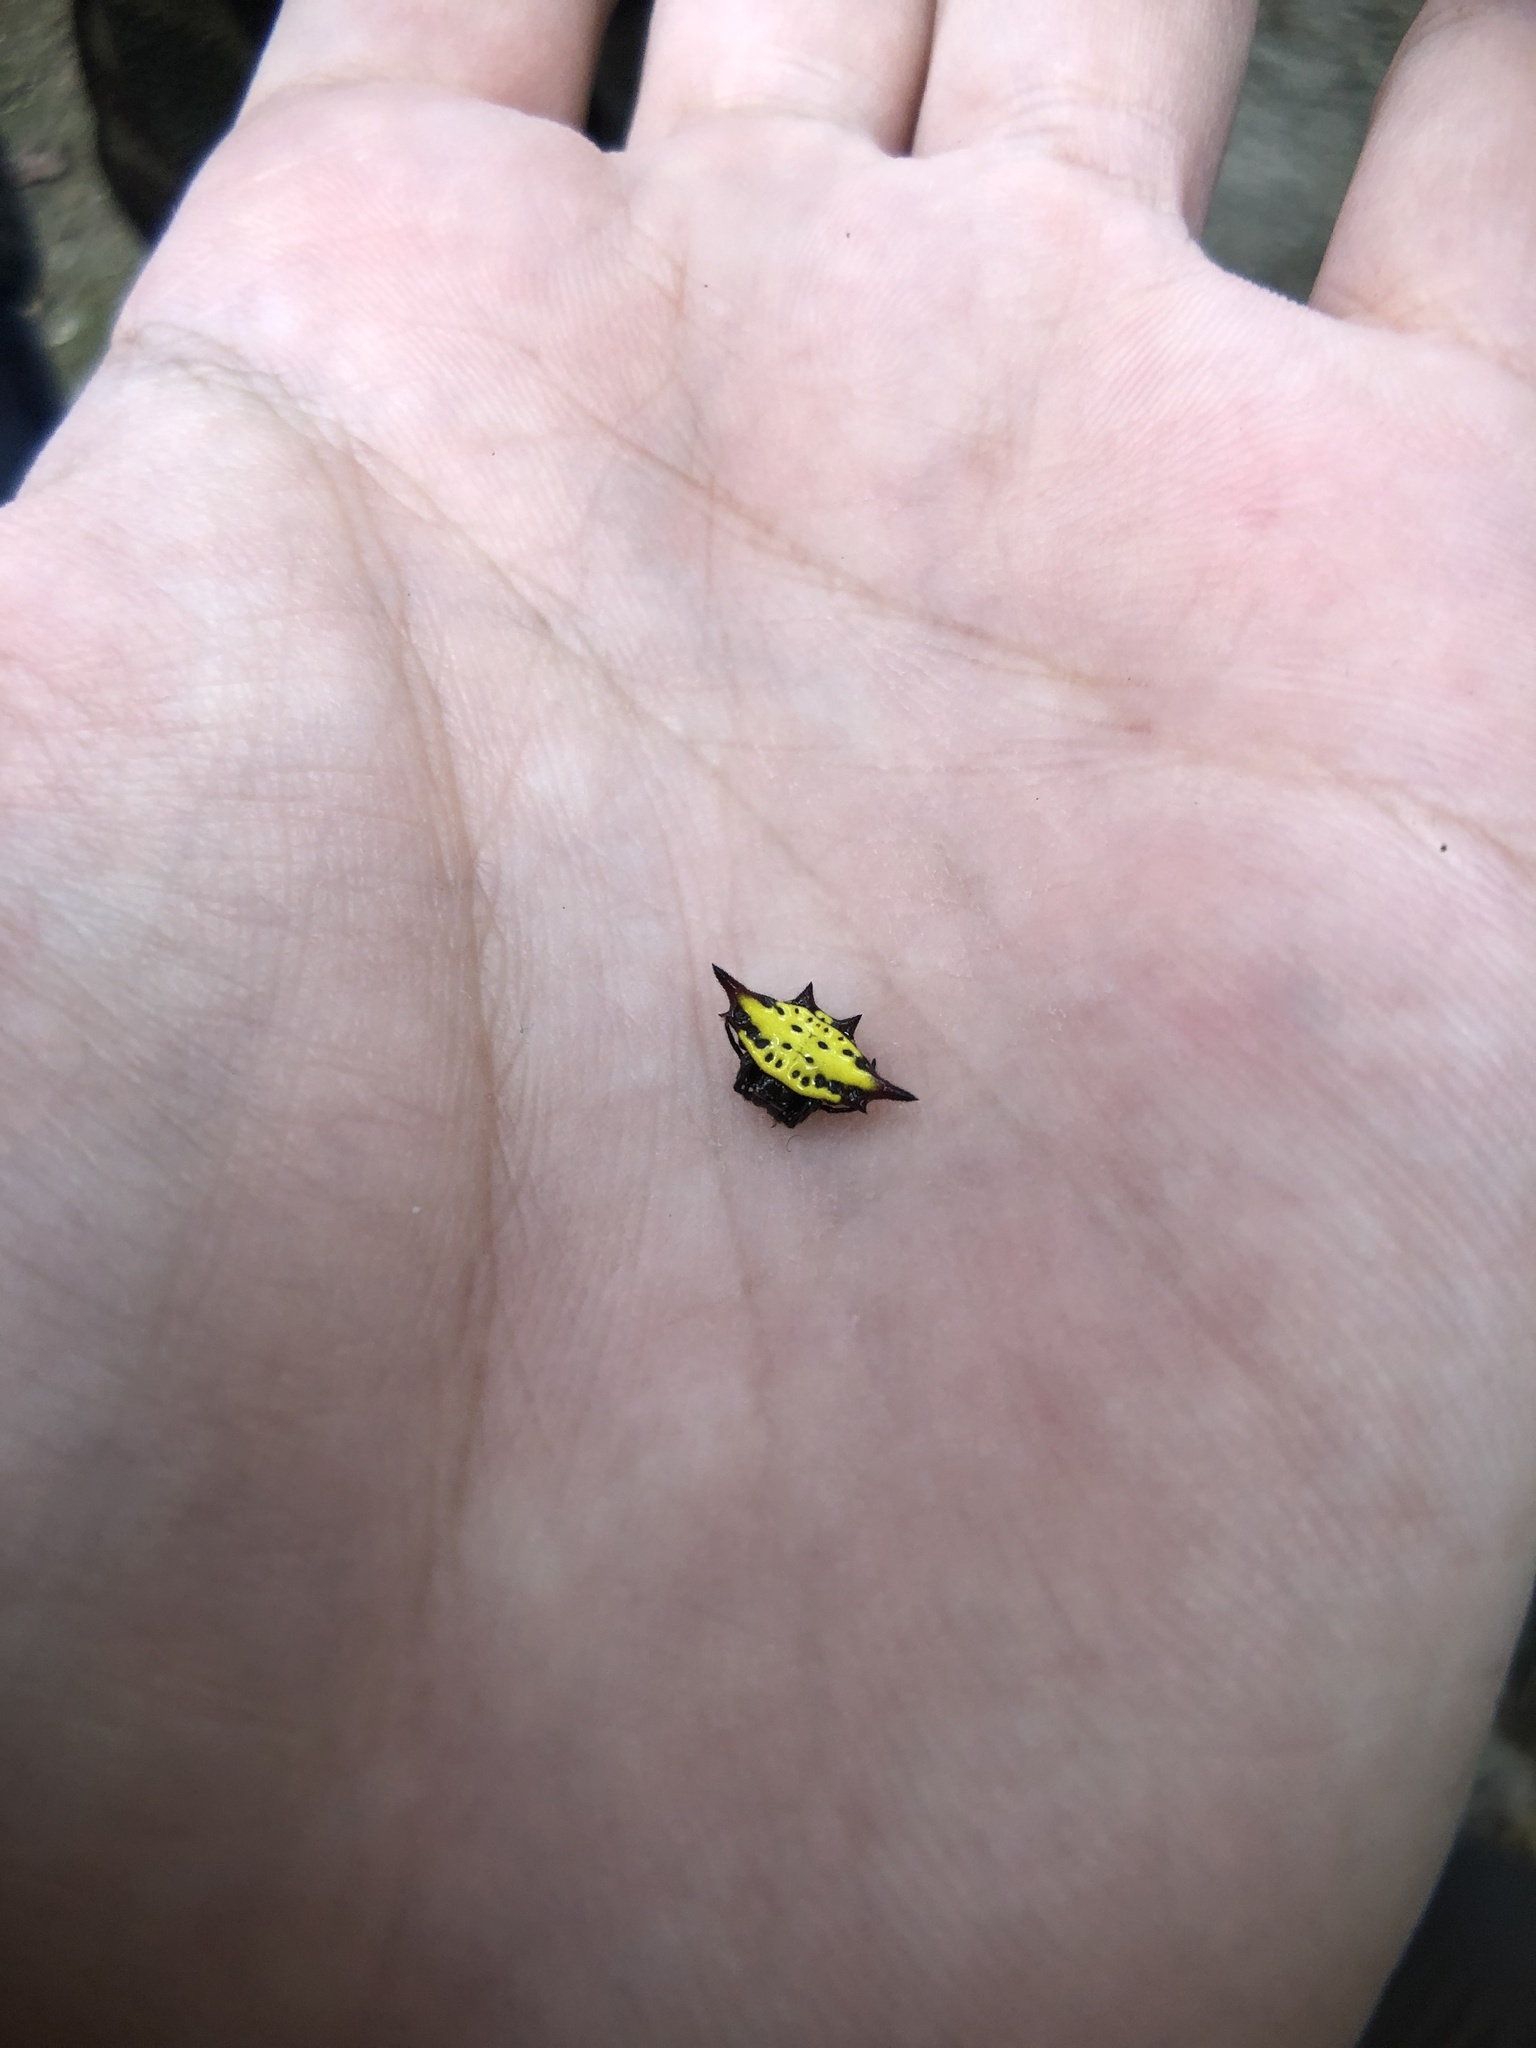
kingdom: Animalia
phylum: Arthropoda
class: Arachnida
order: Araneae
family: Araneidae
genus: Gasteracantha
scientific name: Gasteracantha sauteri
